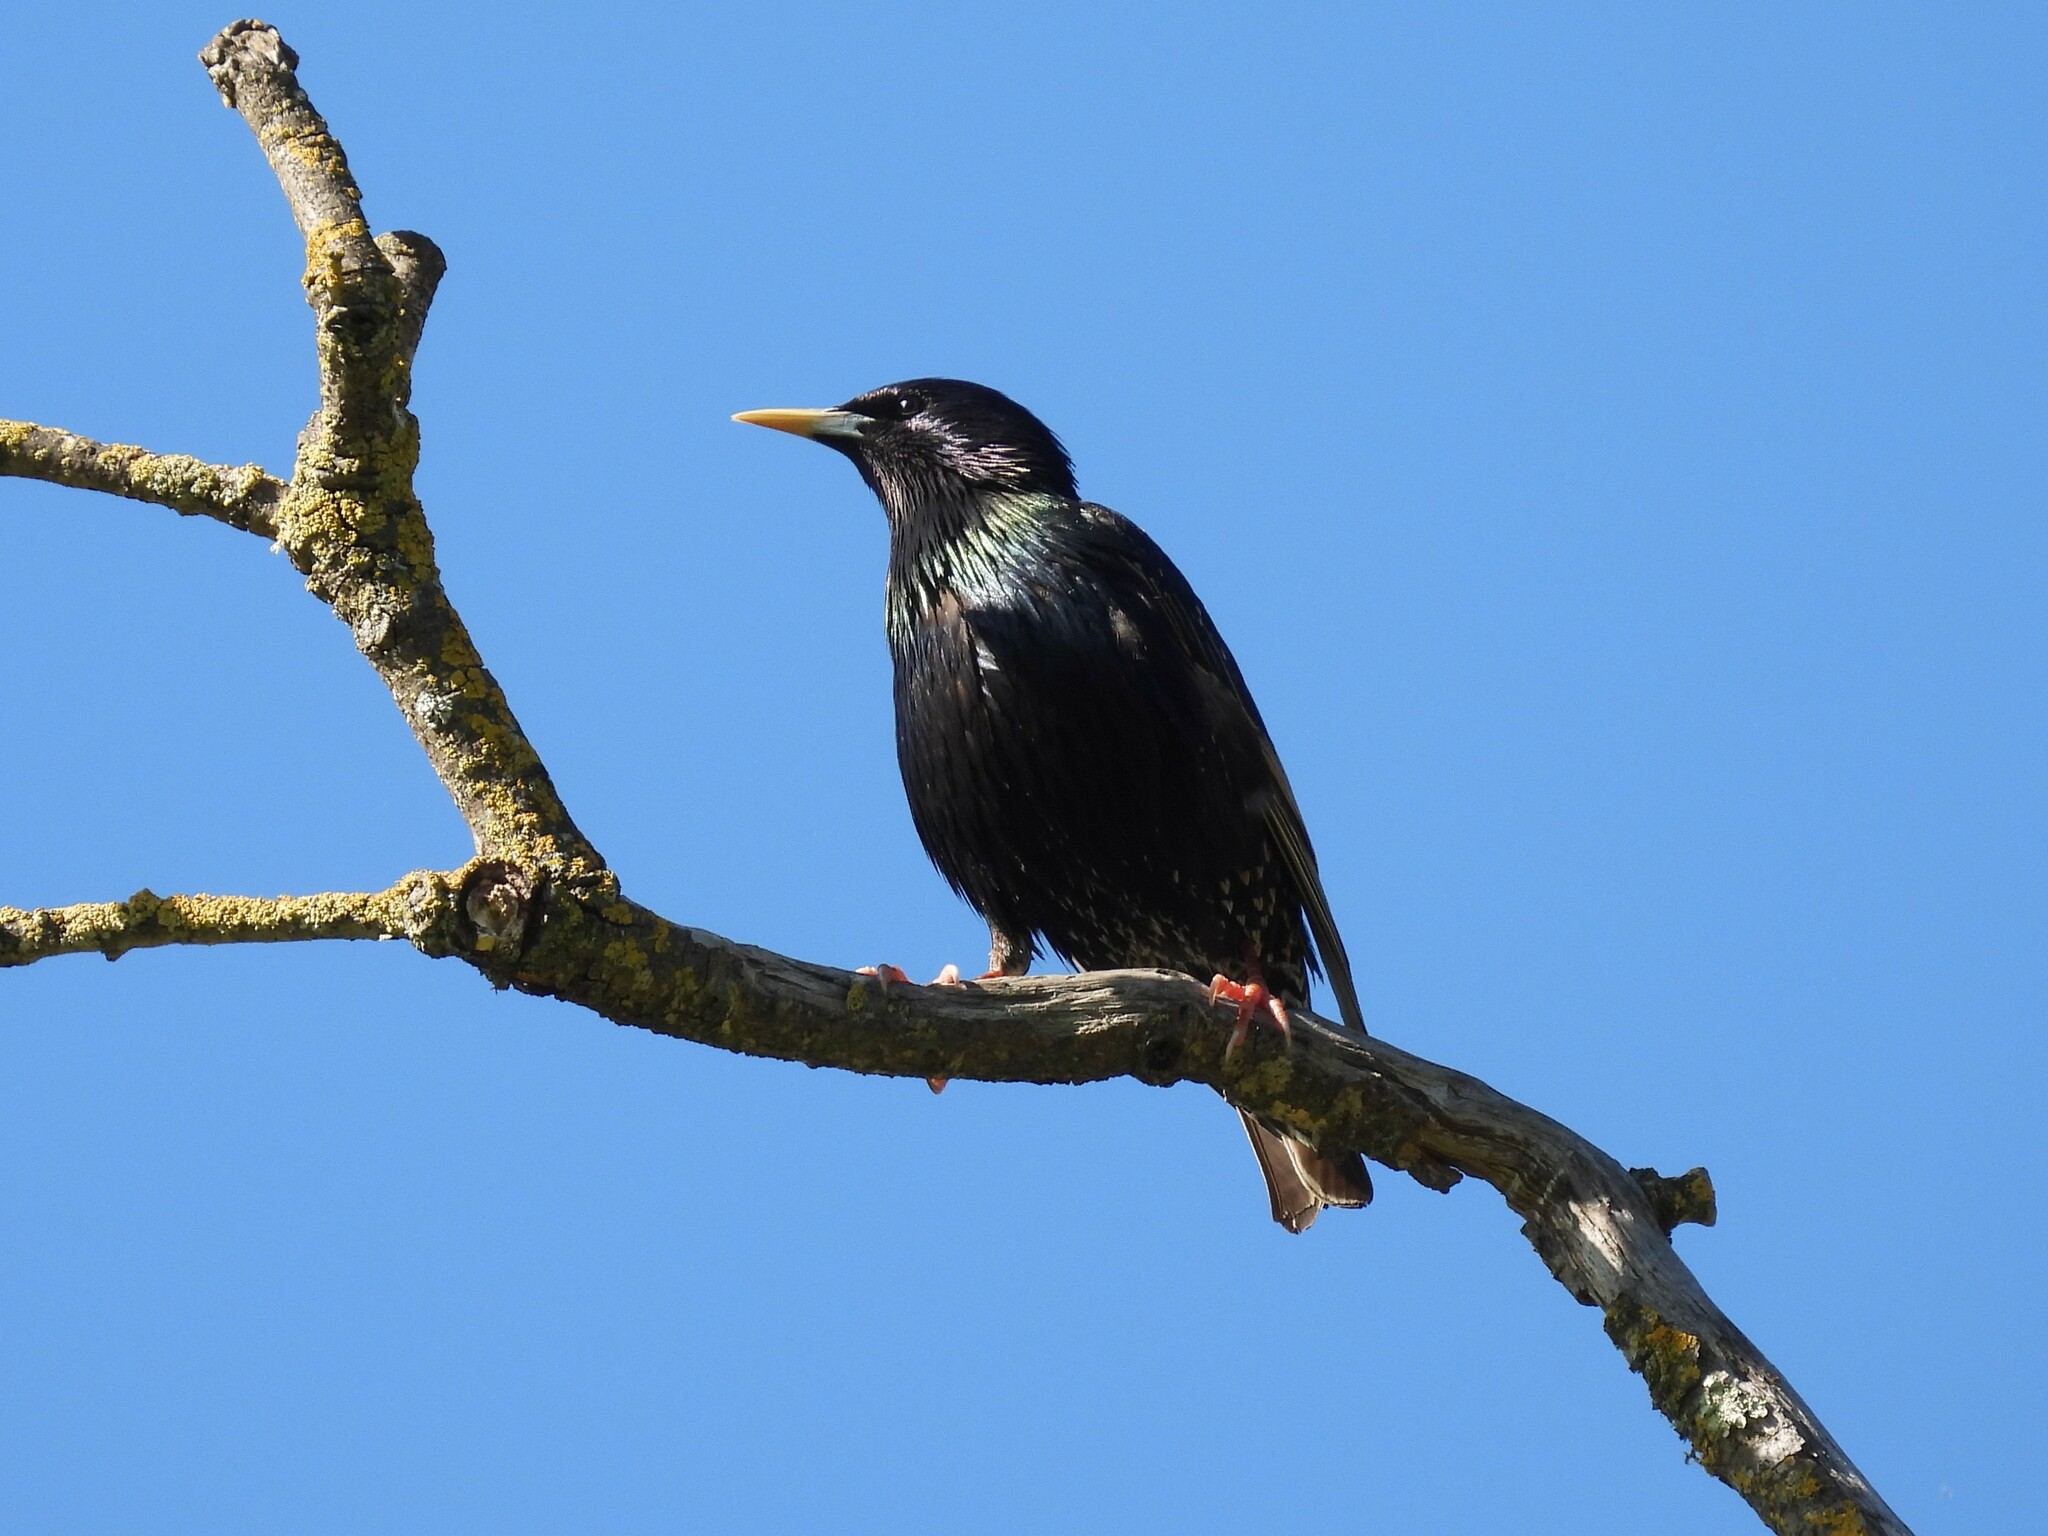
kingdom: Animalia
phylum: Chordata
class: Aves
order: Passeriformes
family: Sturnidae
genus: Sturnus
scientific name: Sturnus vulgaris
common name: Common starling
